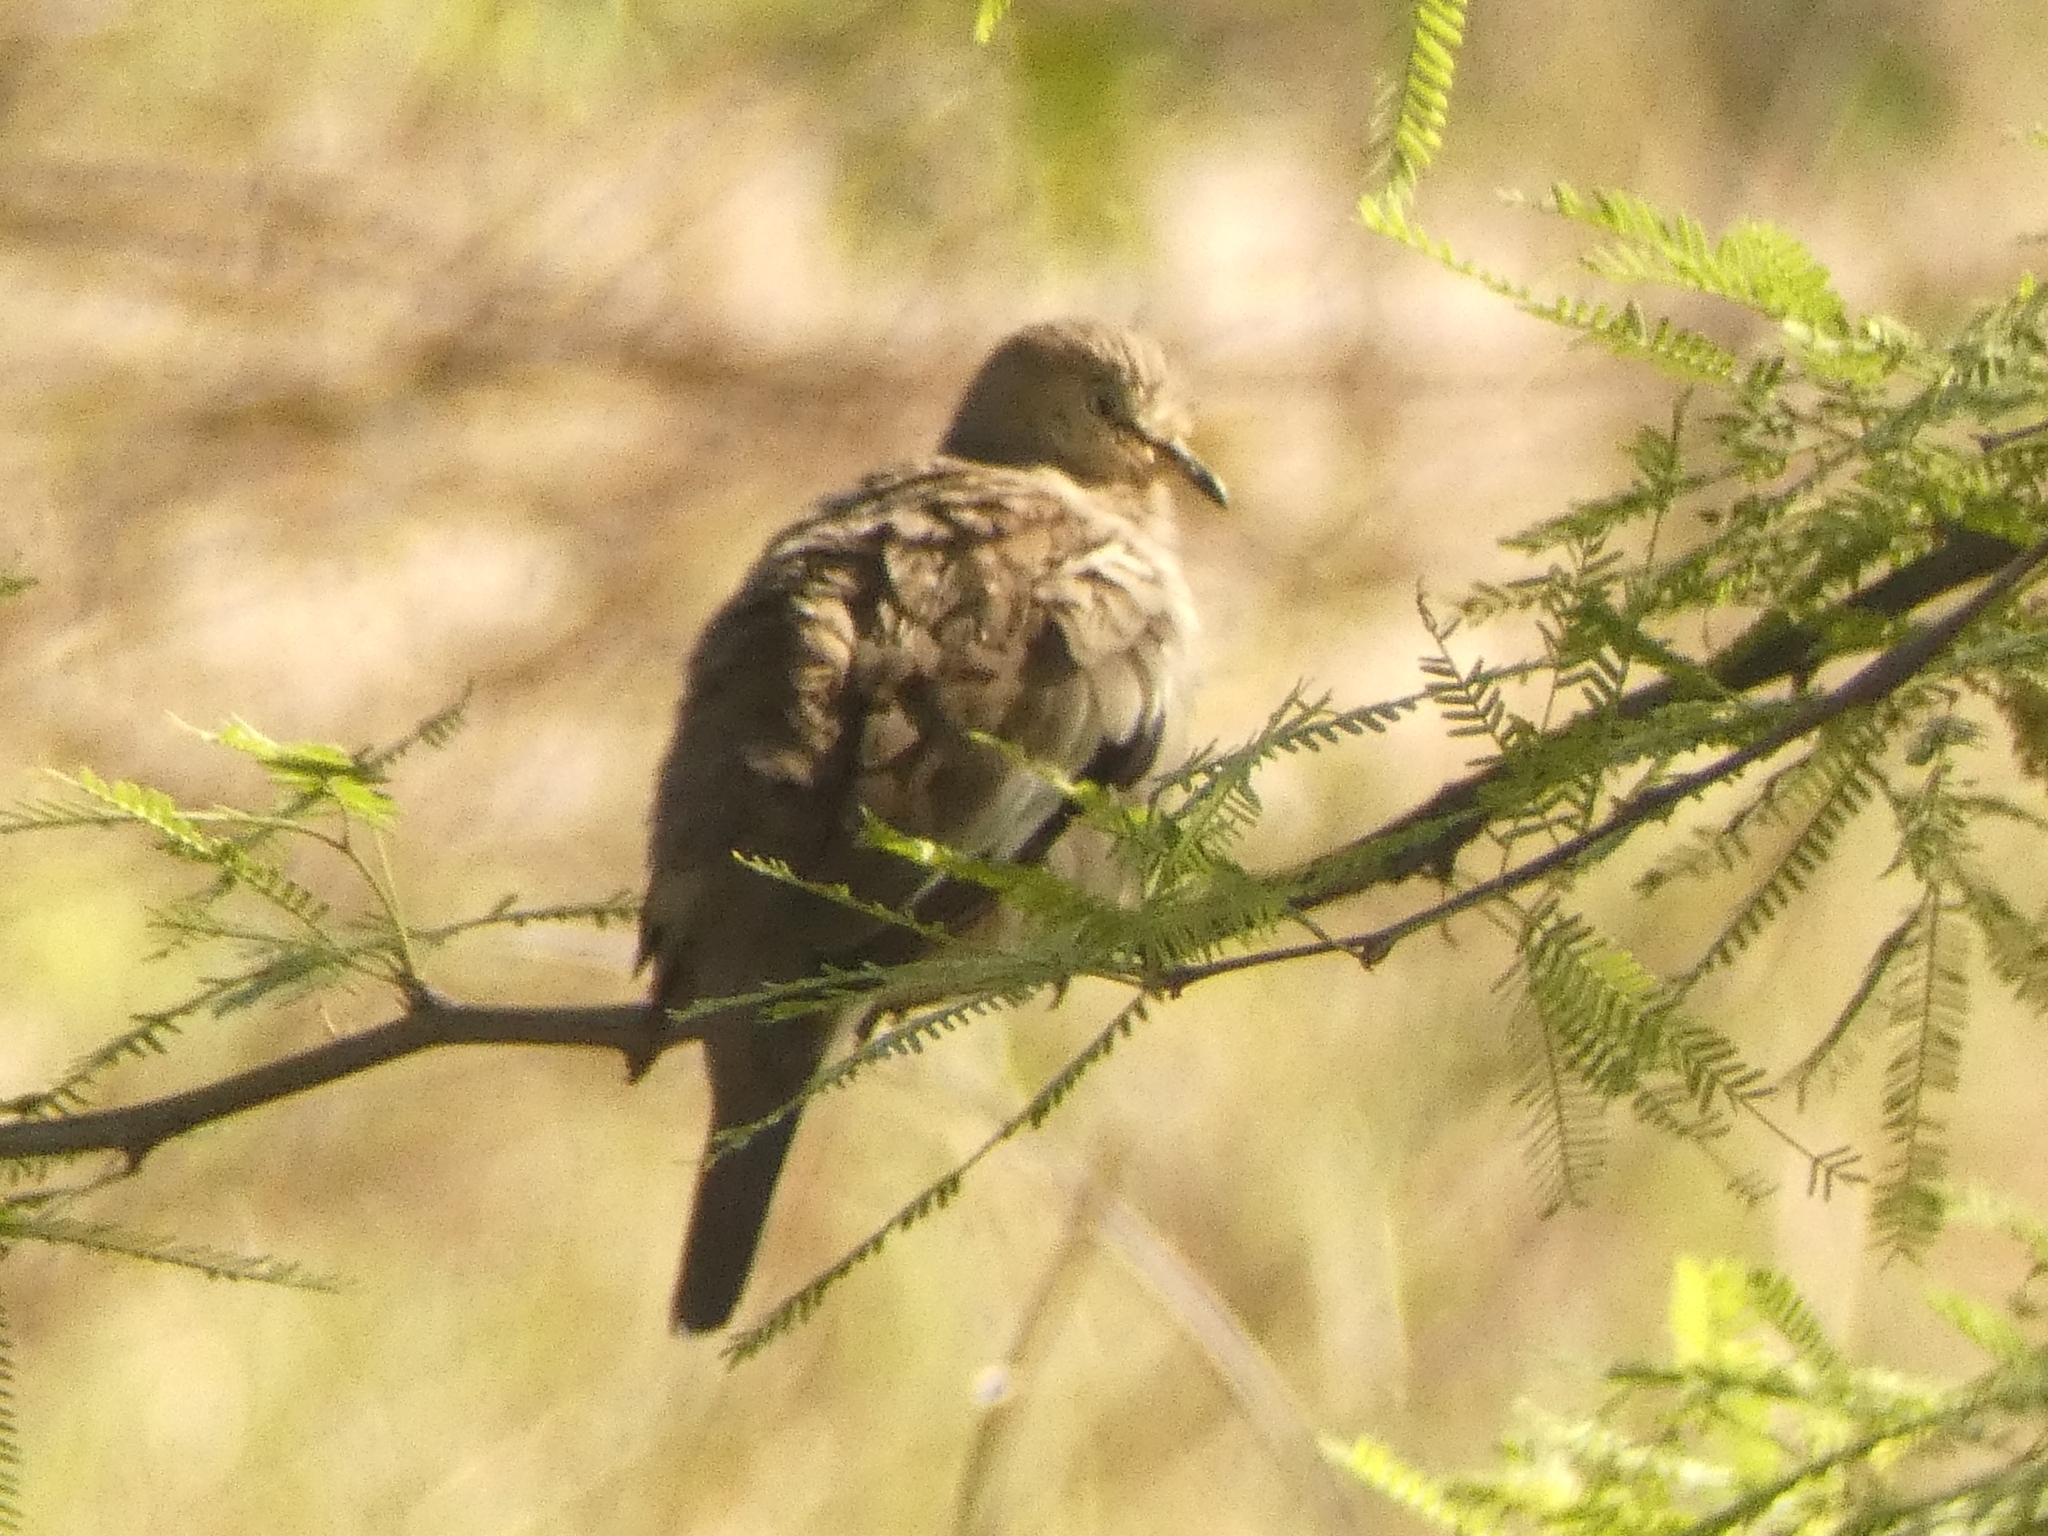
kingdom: Animalia
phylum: Chordata
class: Aves
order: Columbiformes
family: Columbidae
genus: Columbina
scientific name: Columbina picui
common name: Picui ground dove
